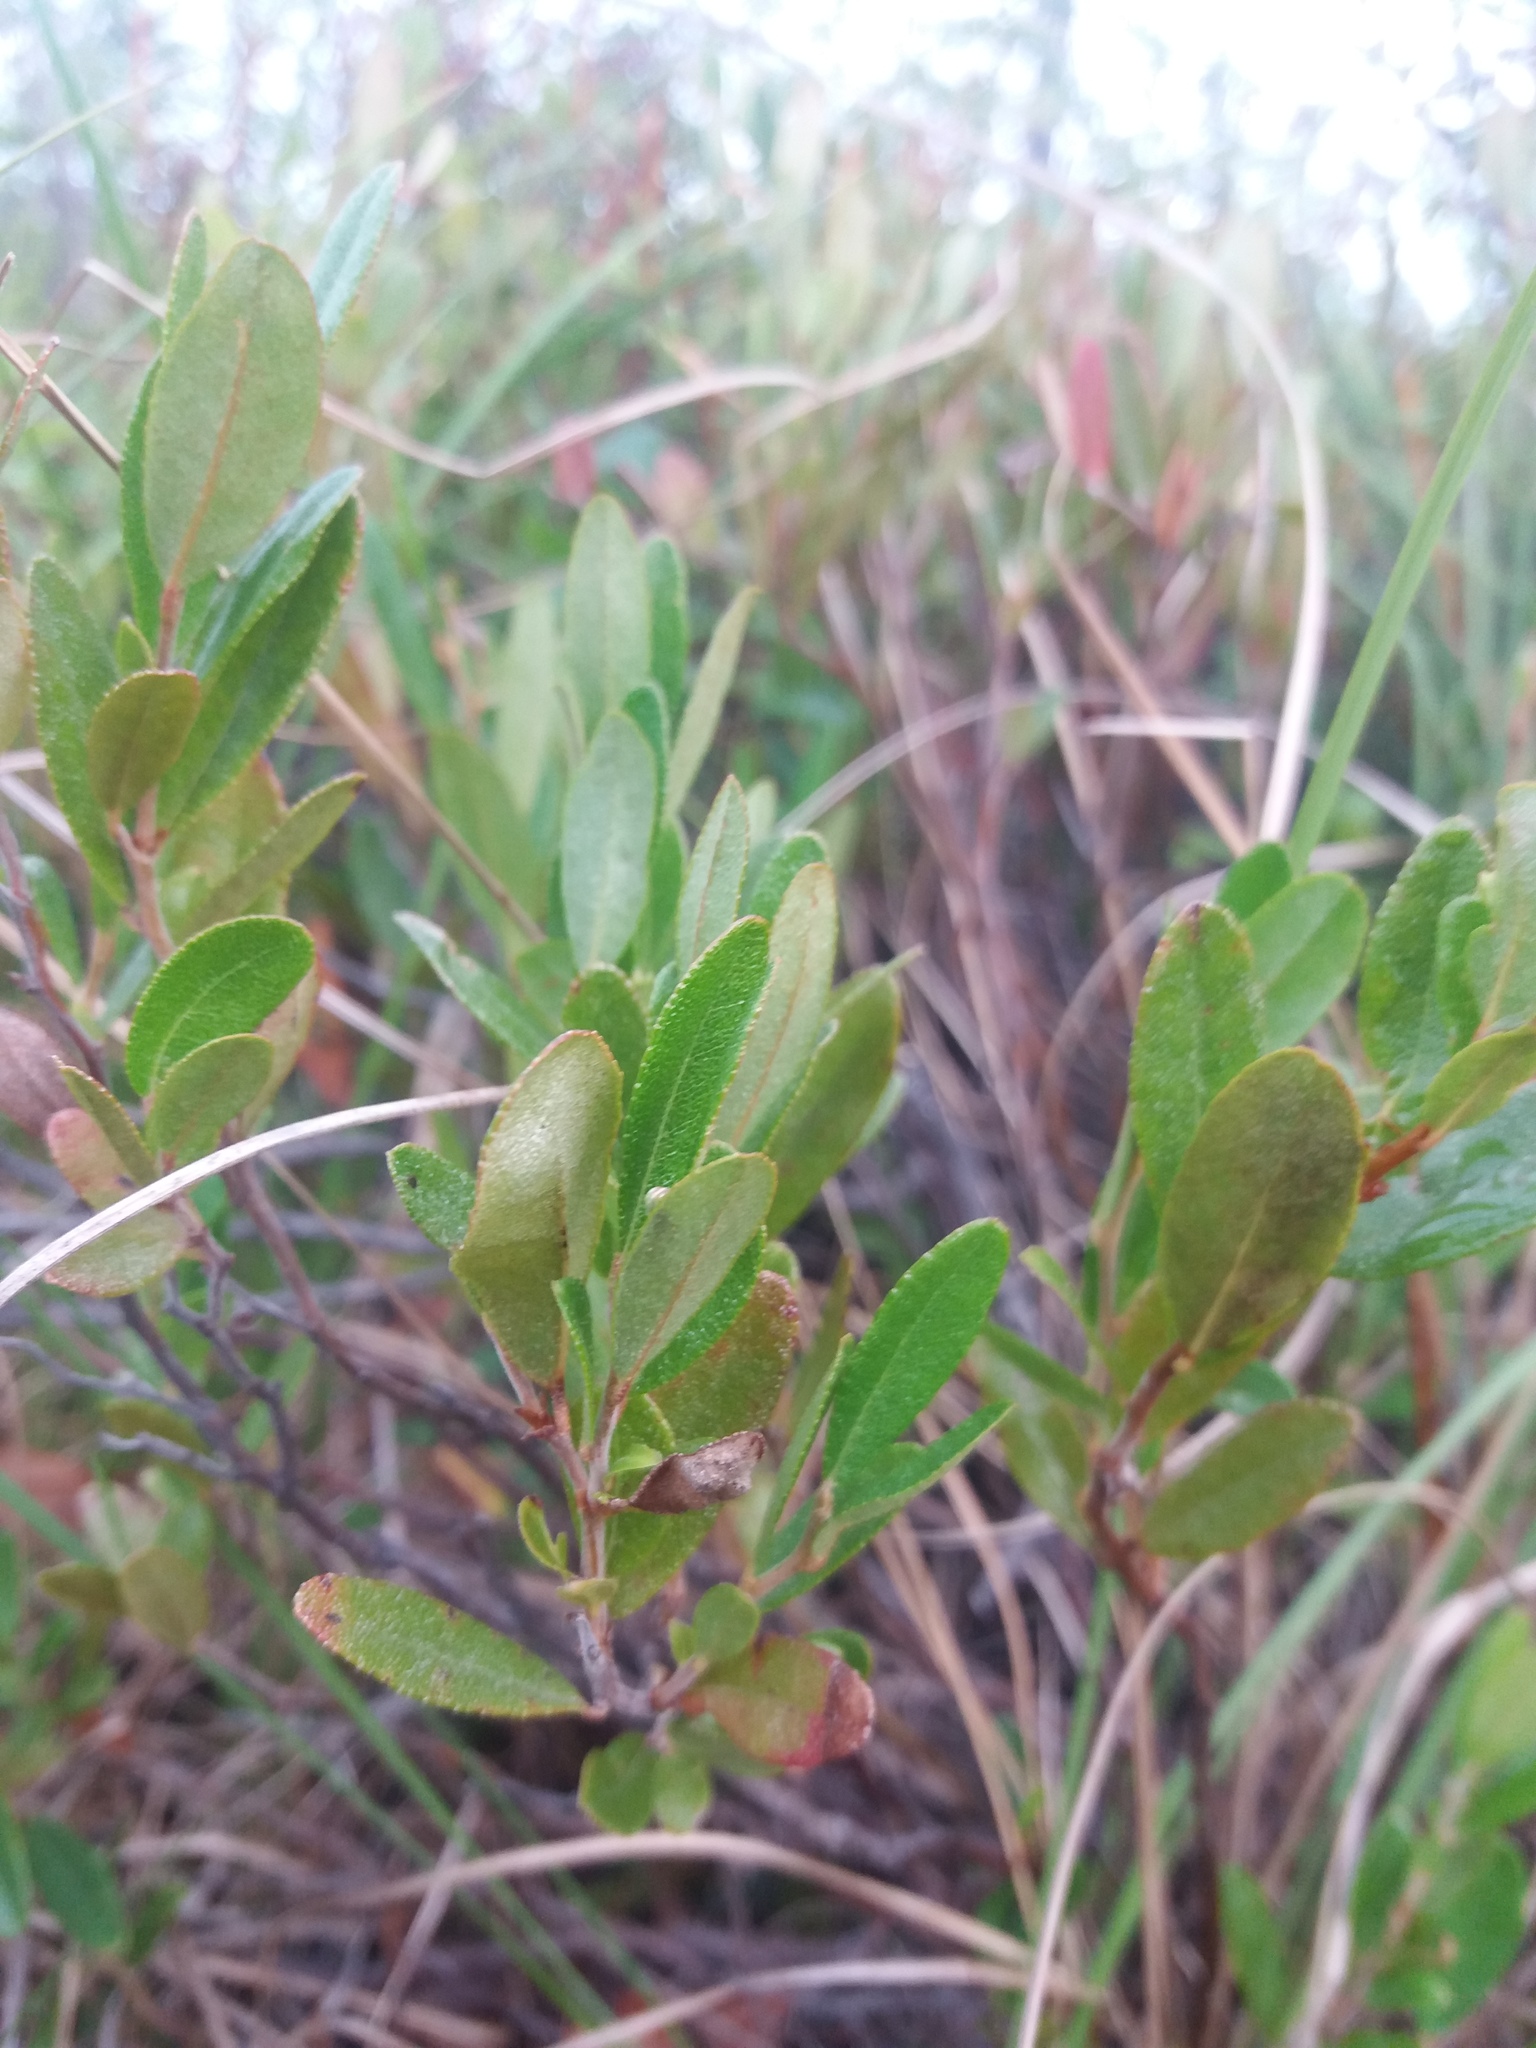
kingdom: Plantae
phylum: Tracheophyta
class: Magnoliopsida
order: Ericales
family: Ericaceae
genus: Chamaedaphne
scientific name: Chamaedaphne calyculata
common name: Leatherleaf
